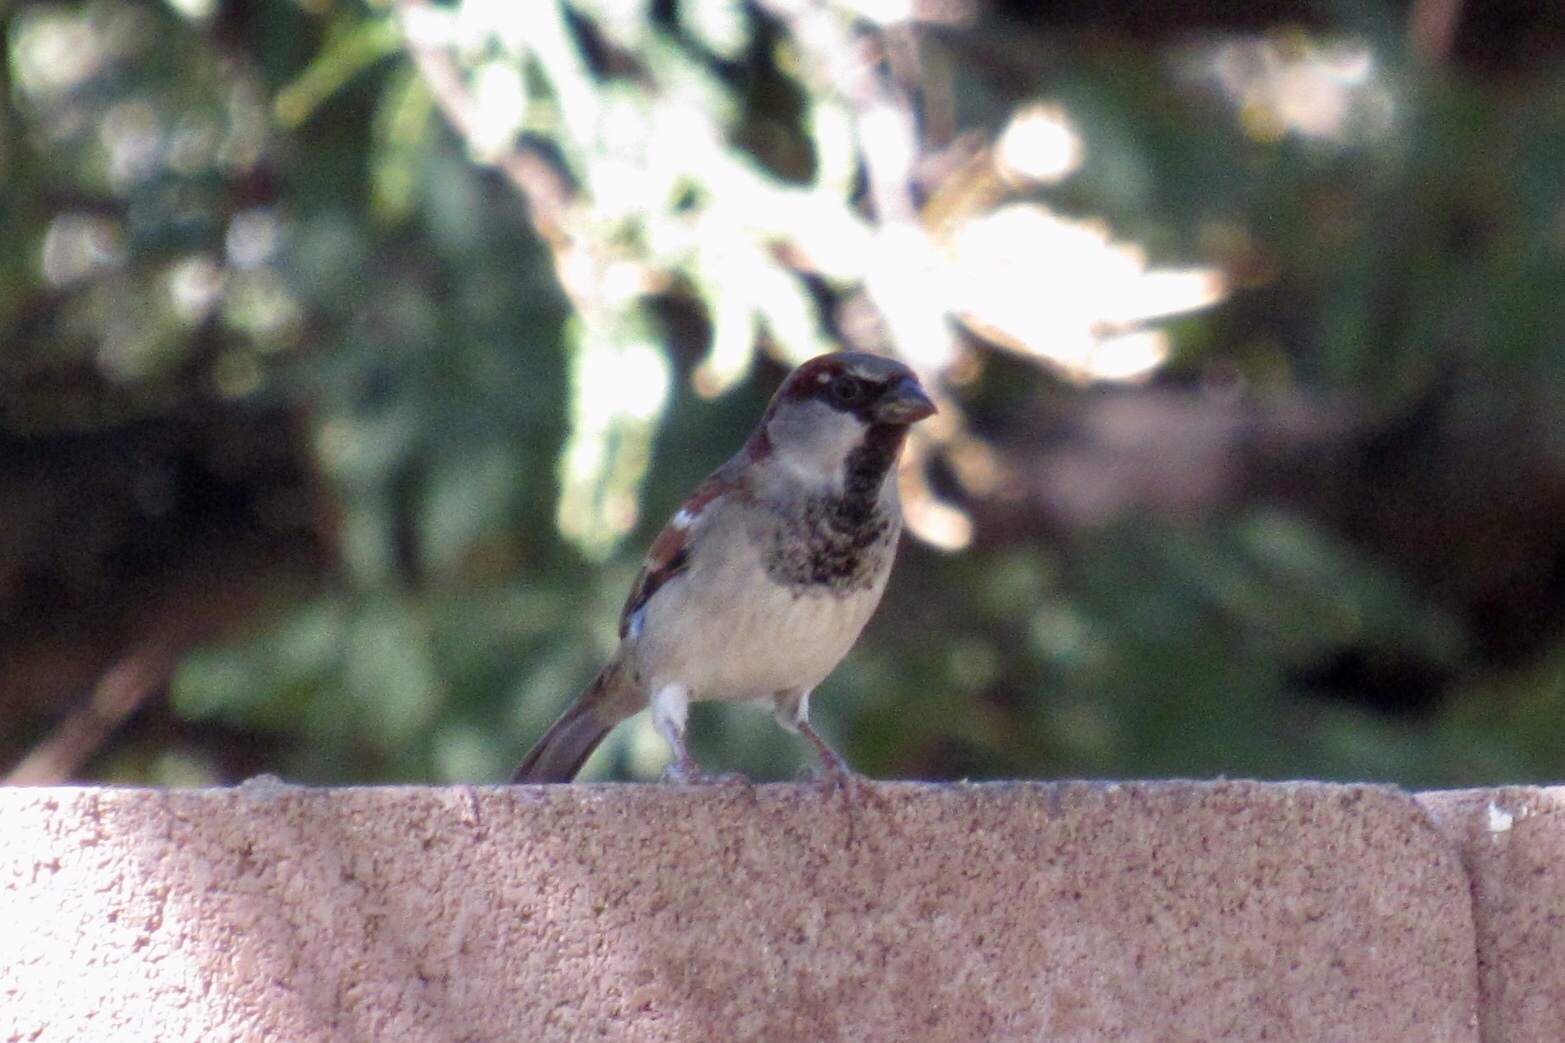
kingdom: Animalia
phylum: Chordata
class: Aves
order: Passeriformes
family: Passeridae
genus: Passer
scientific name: Passer domesticus
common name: House sparrow
